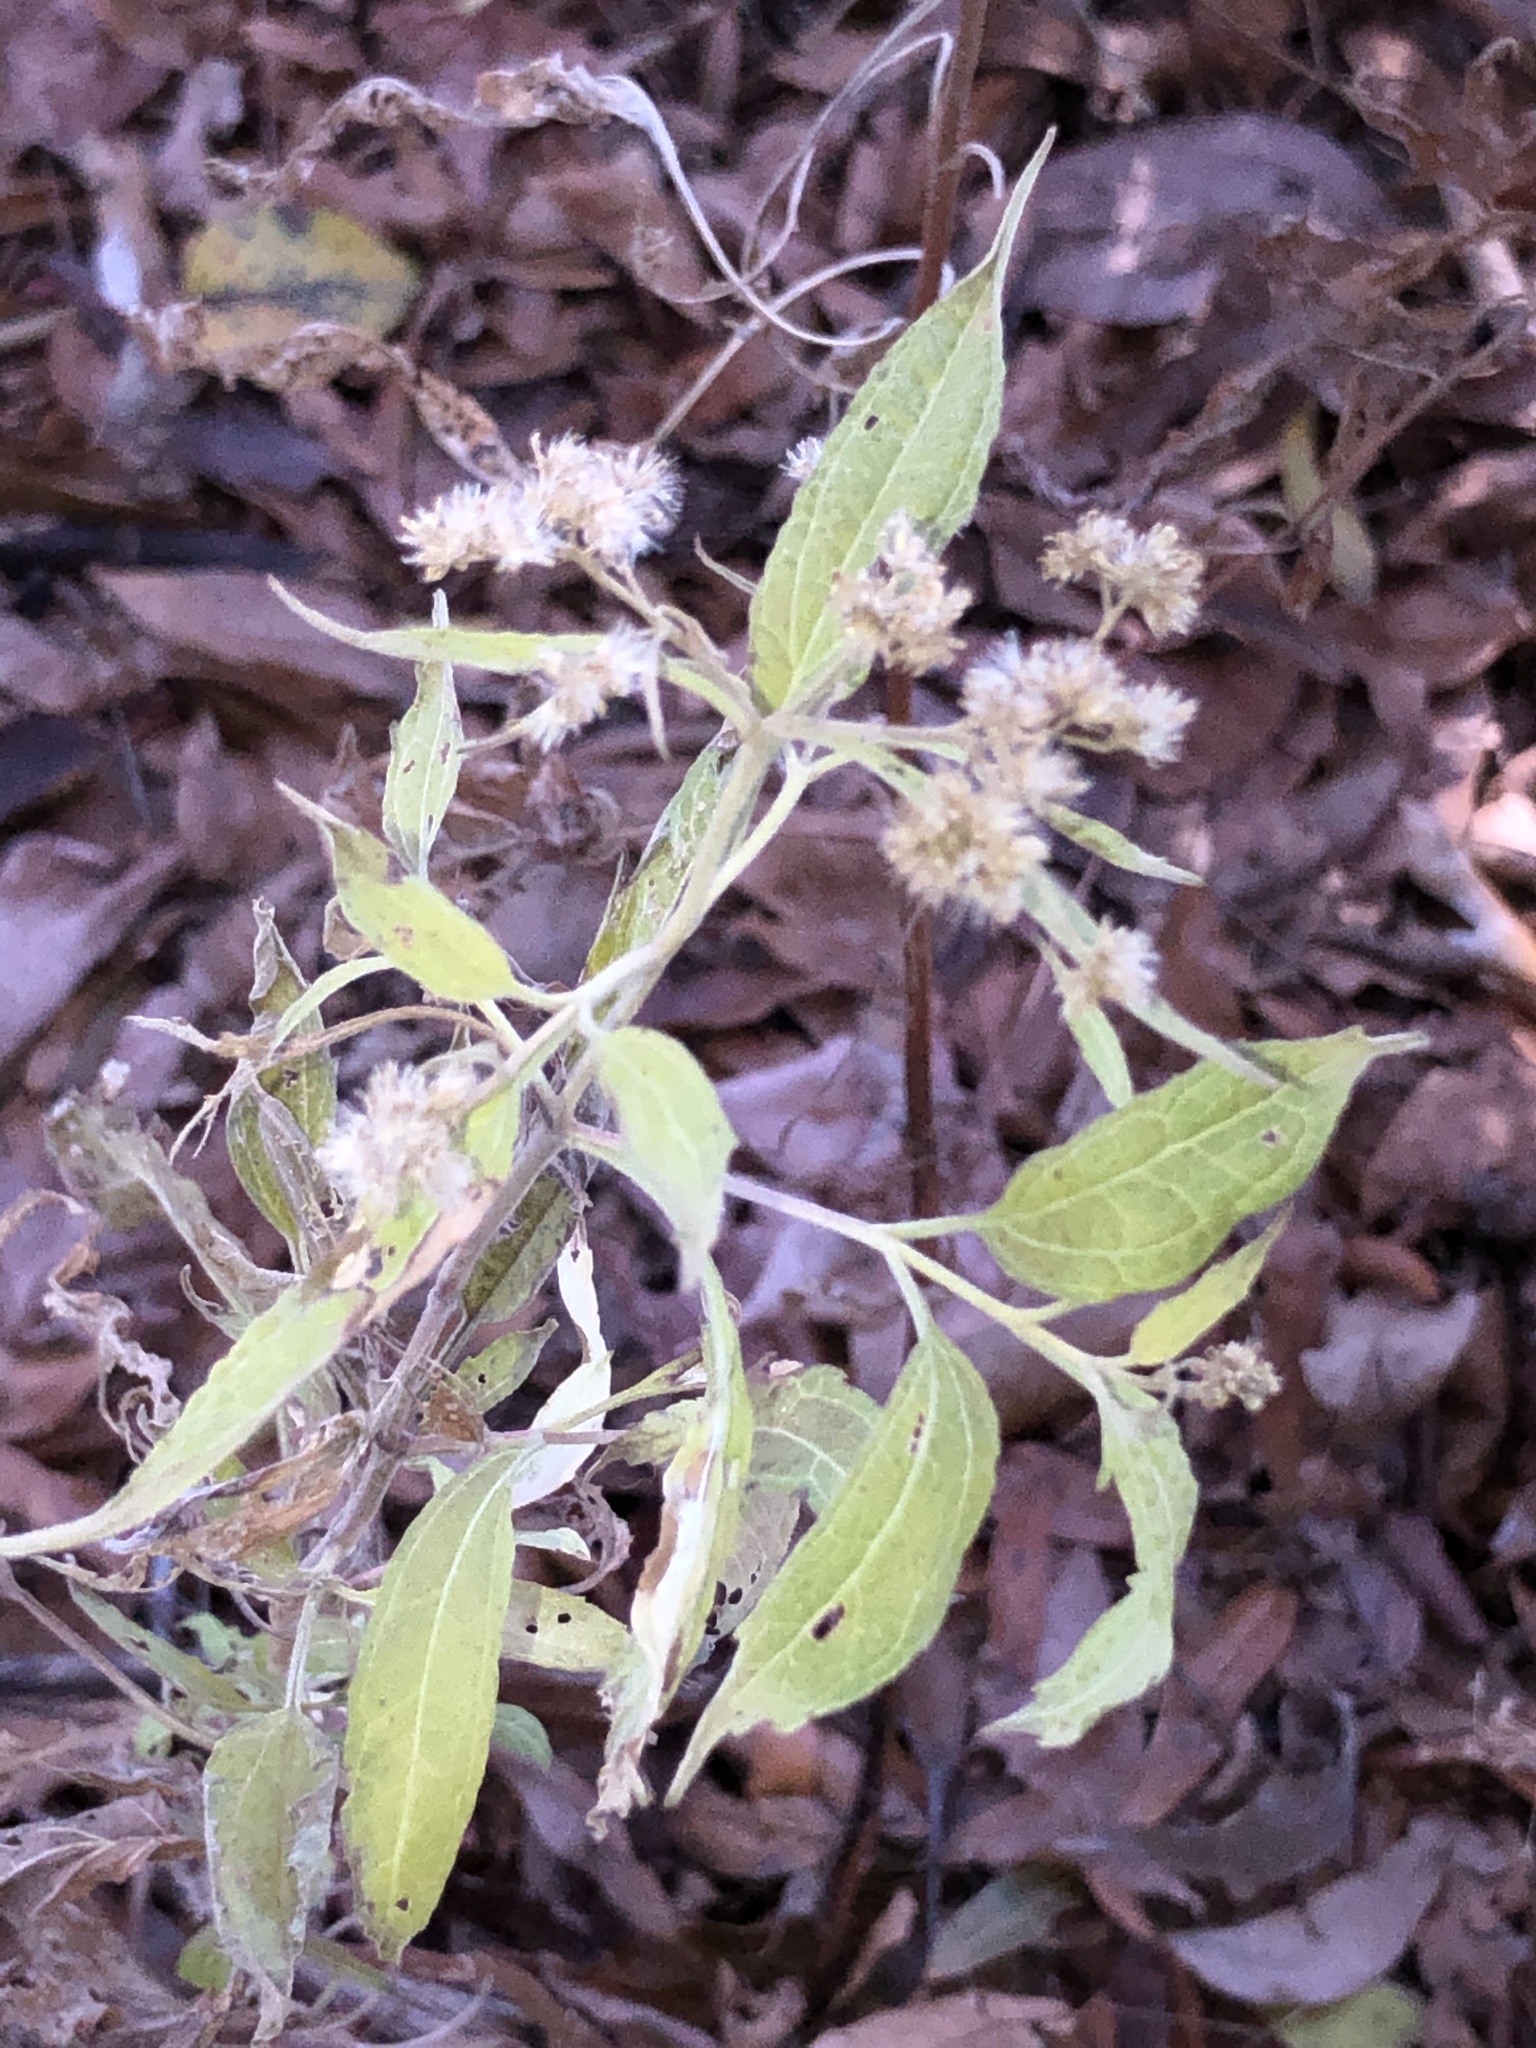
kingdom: Plantae
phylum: Tracheophyta
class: Magnoliopsida
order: Asterales
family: Asteraceae
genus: Eupatorium
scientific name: Eupatorium serotinum
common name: Late boneset
